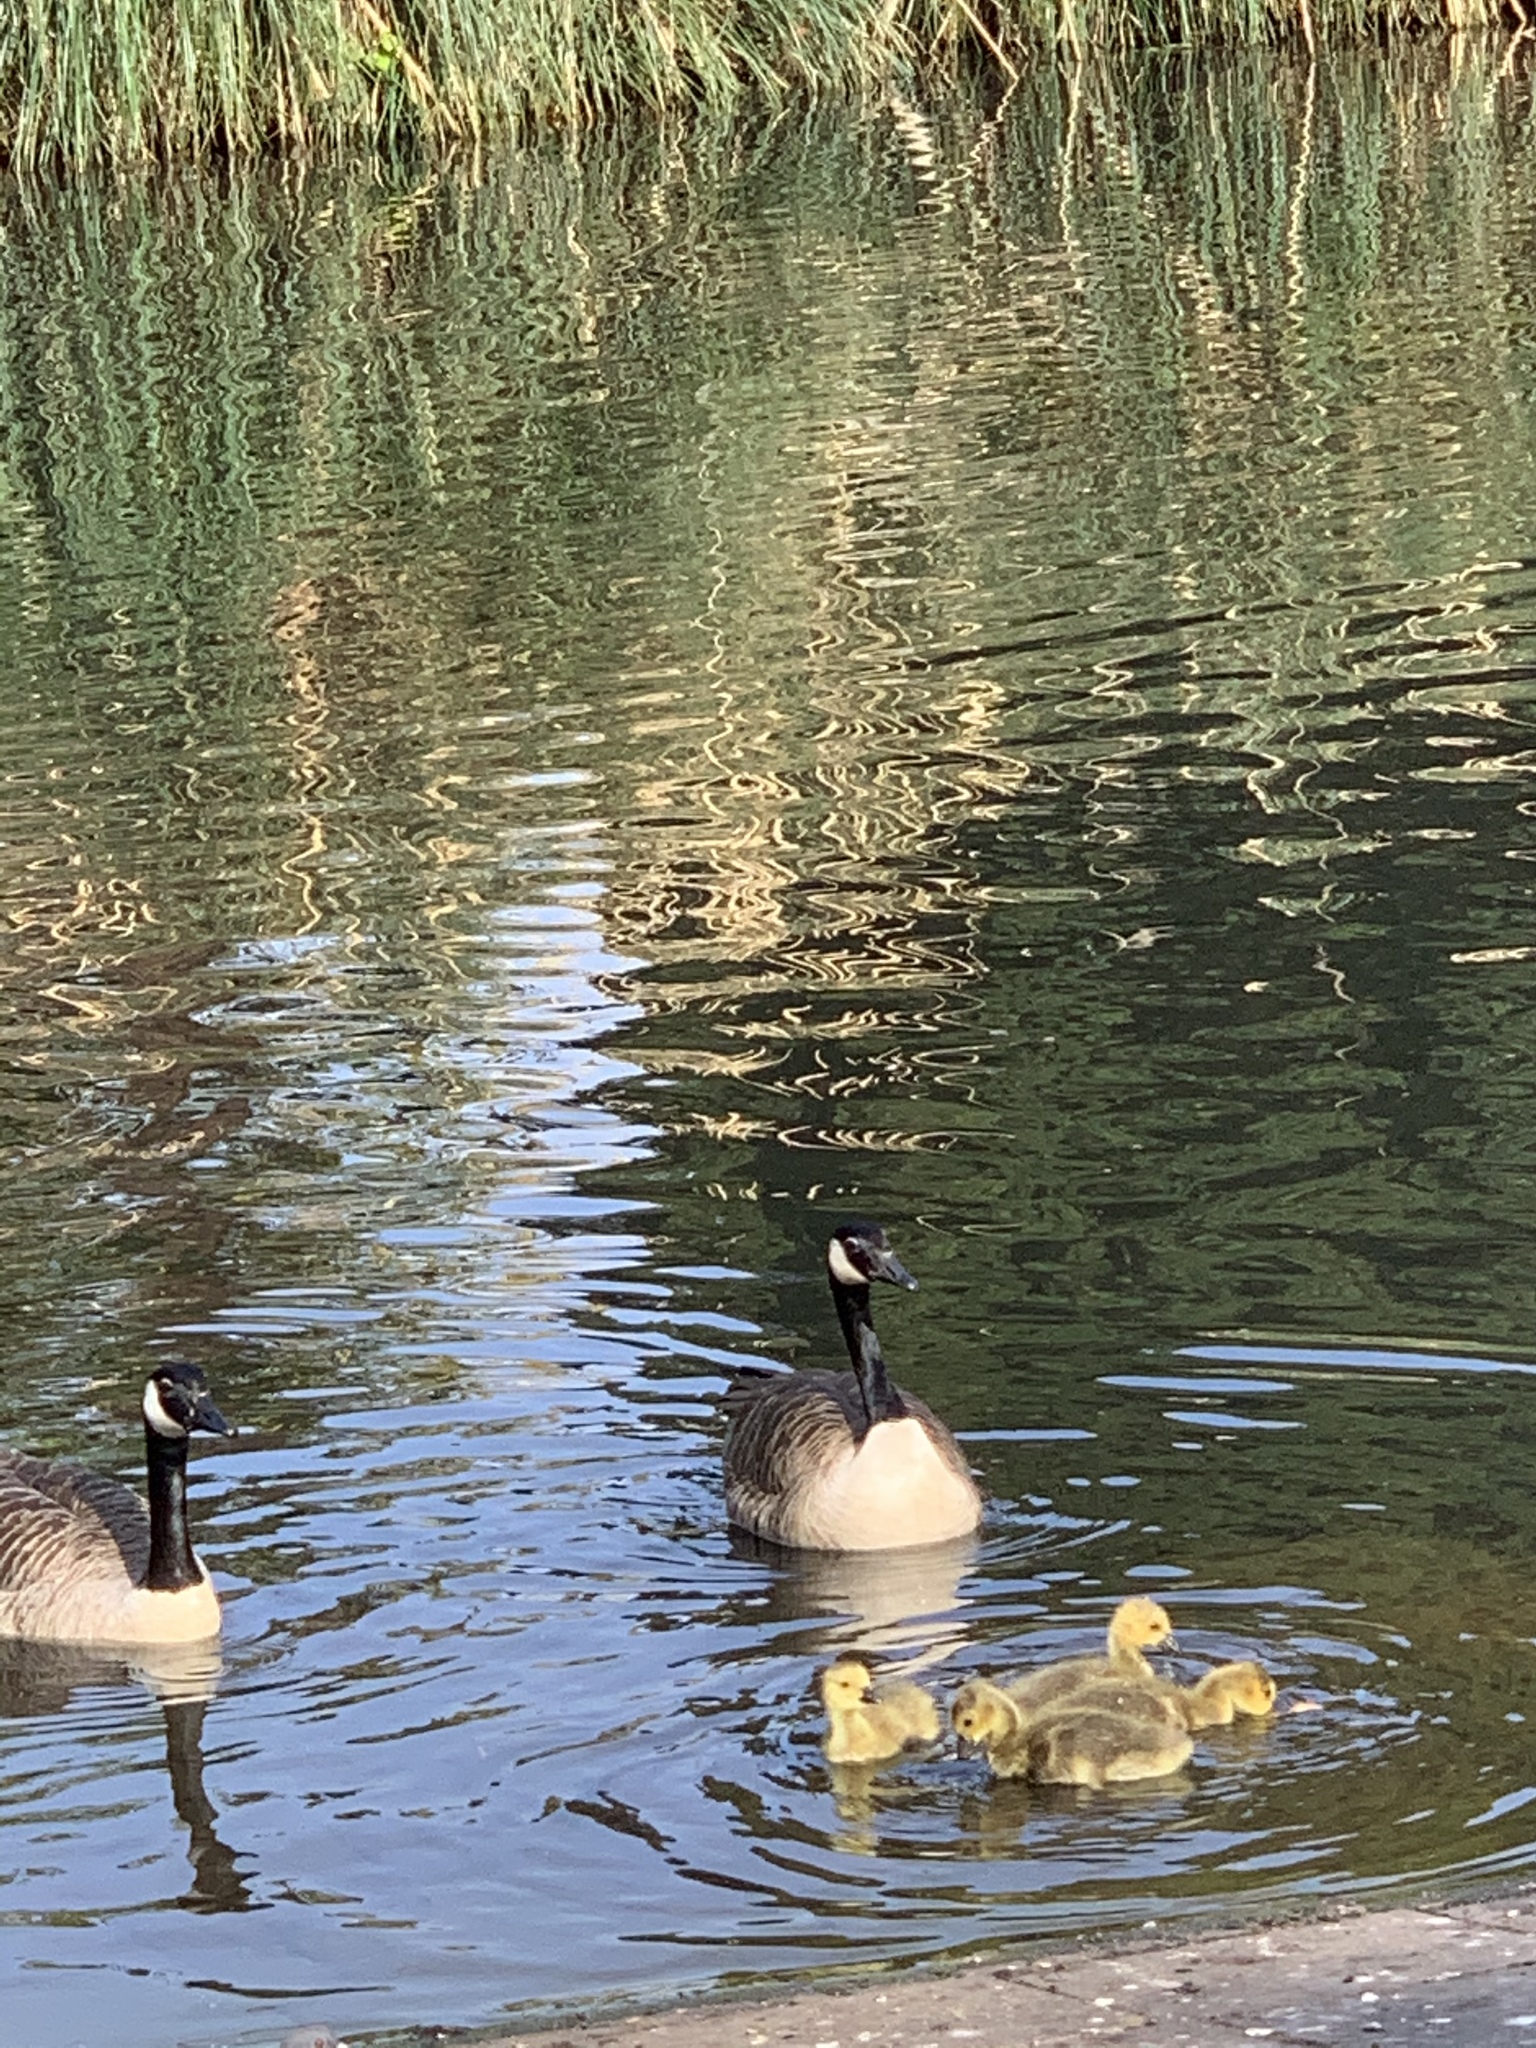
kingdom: Animalia
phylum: Chordata
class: Aves
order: Anseriformes
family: Anatidae
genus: Branta
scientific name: Branta canadensis
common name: Canada goose
